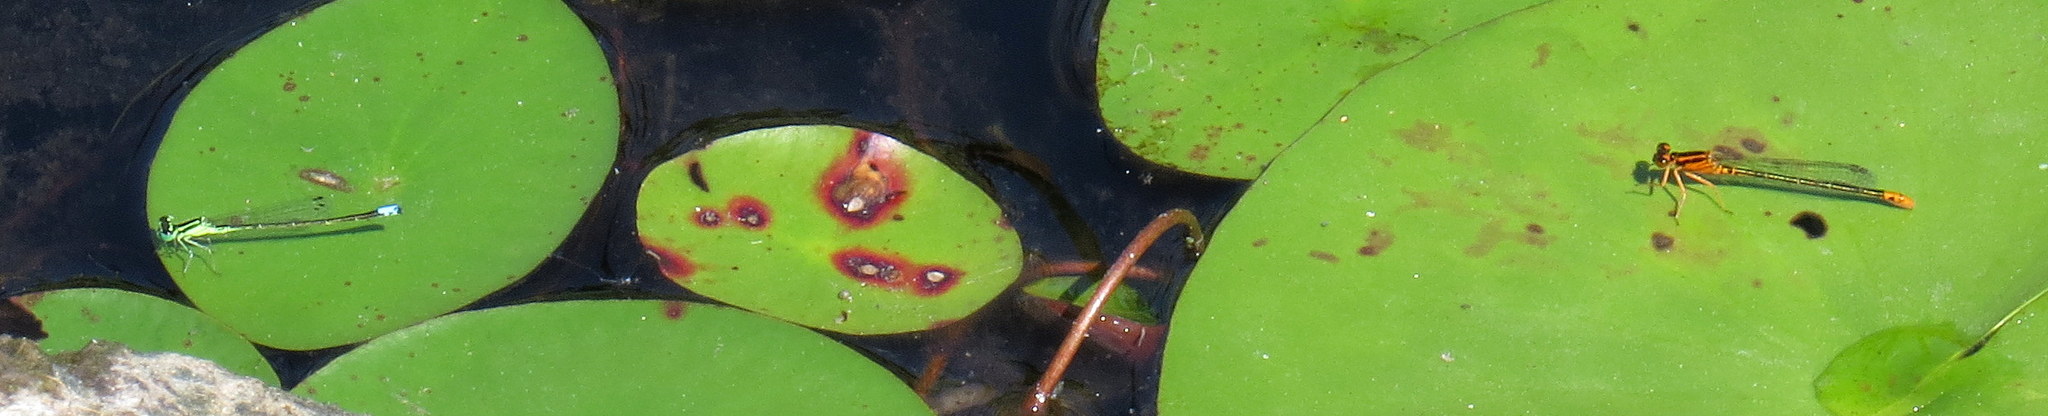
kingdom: Animalia
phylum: Arthropoda
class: Insecta
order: Odonata
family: Coenagrionidae
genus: Ischnura
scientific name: Ischnura verticalis
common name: Eastern forktail
